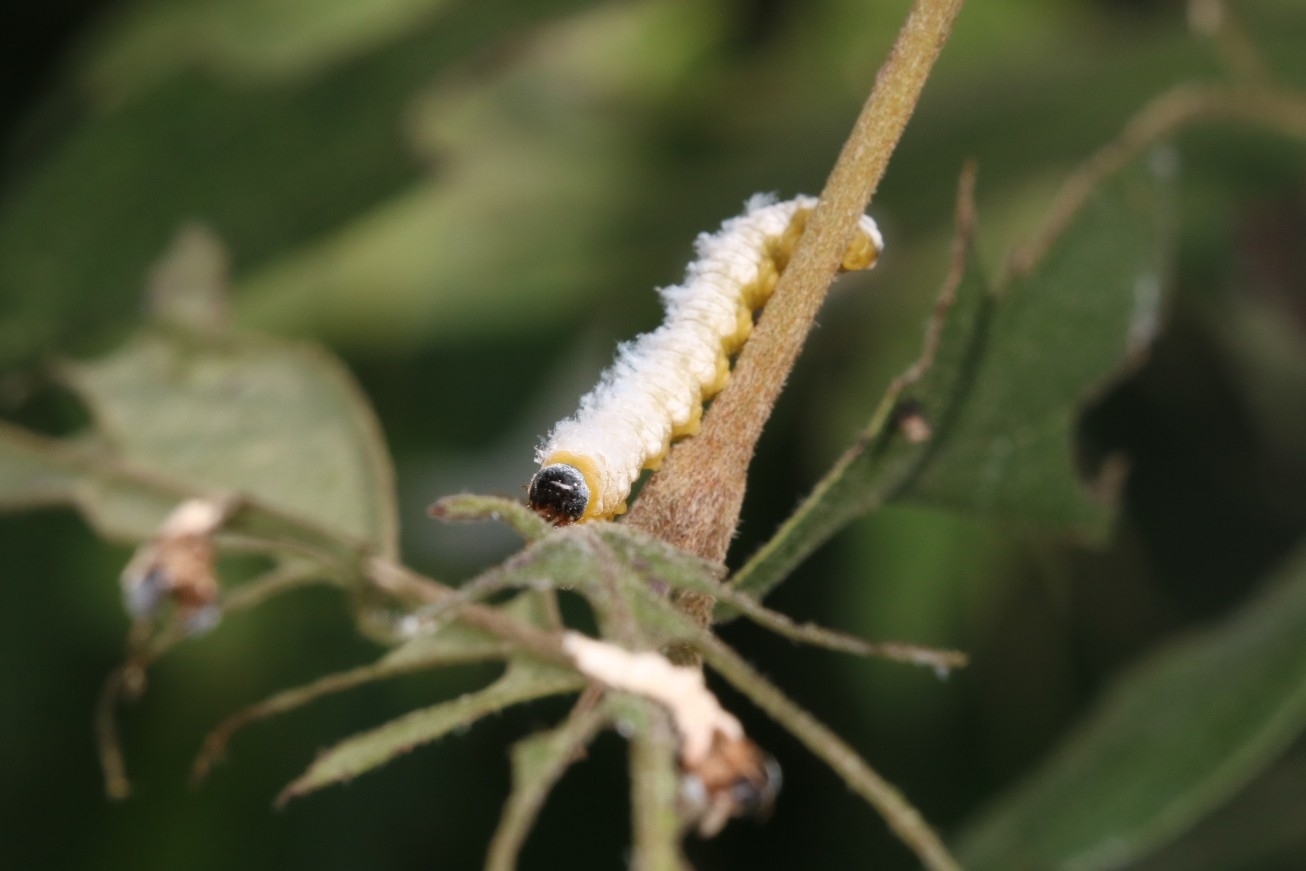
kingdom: Animalia
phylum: Arthropoda
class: Insecta
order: Hymenoptera
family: Tenthredinidae
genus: Macremphytus
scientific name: Macremphytus testaceus
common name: Dogwood sawfly
